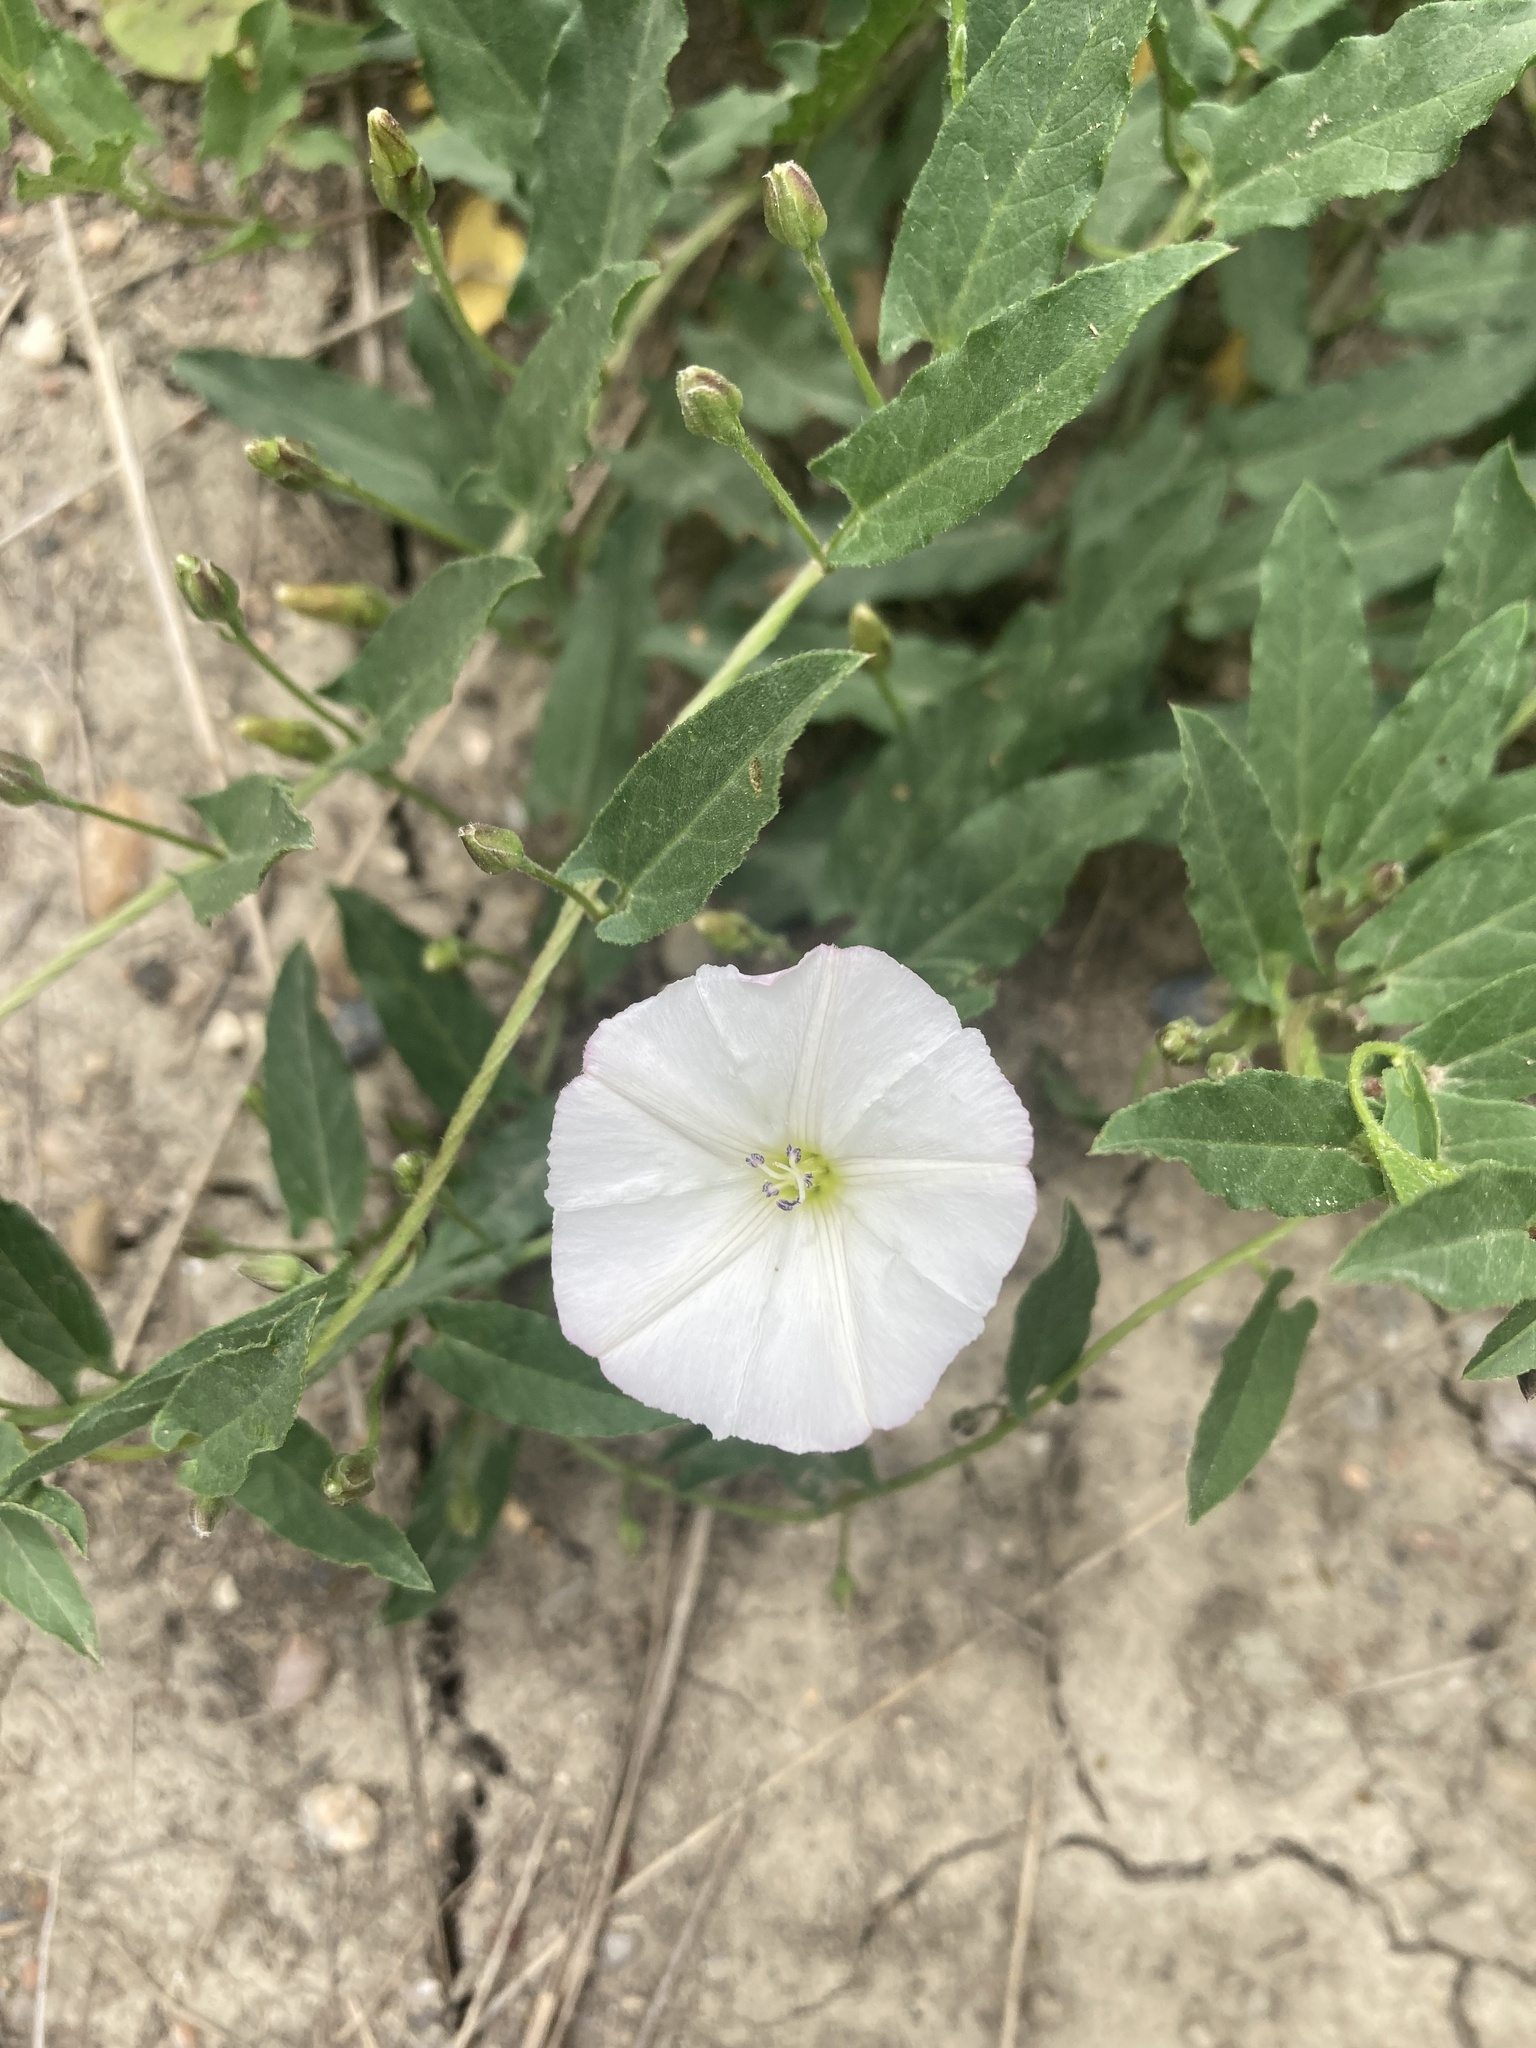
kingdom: Plantae
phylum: Tracheophyta
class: Magnoliopsida
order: Solanales
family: Convolvulaceae
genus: Convolvulus
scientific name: Convolvulus arvensis
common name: Field bindweed
